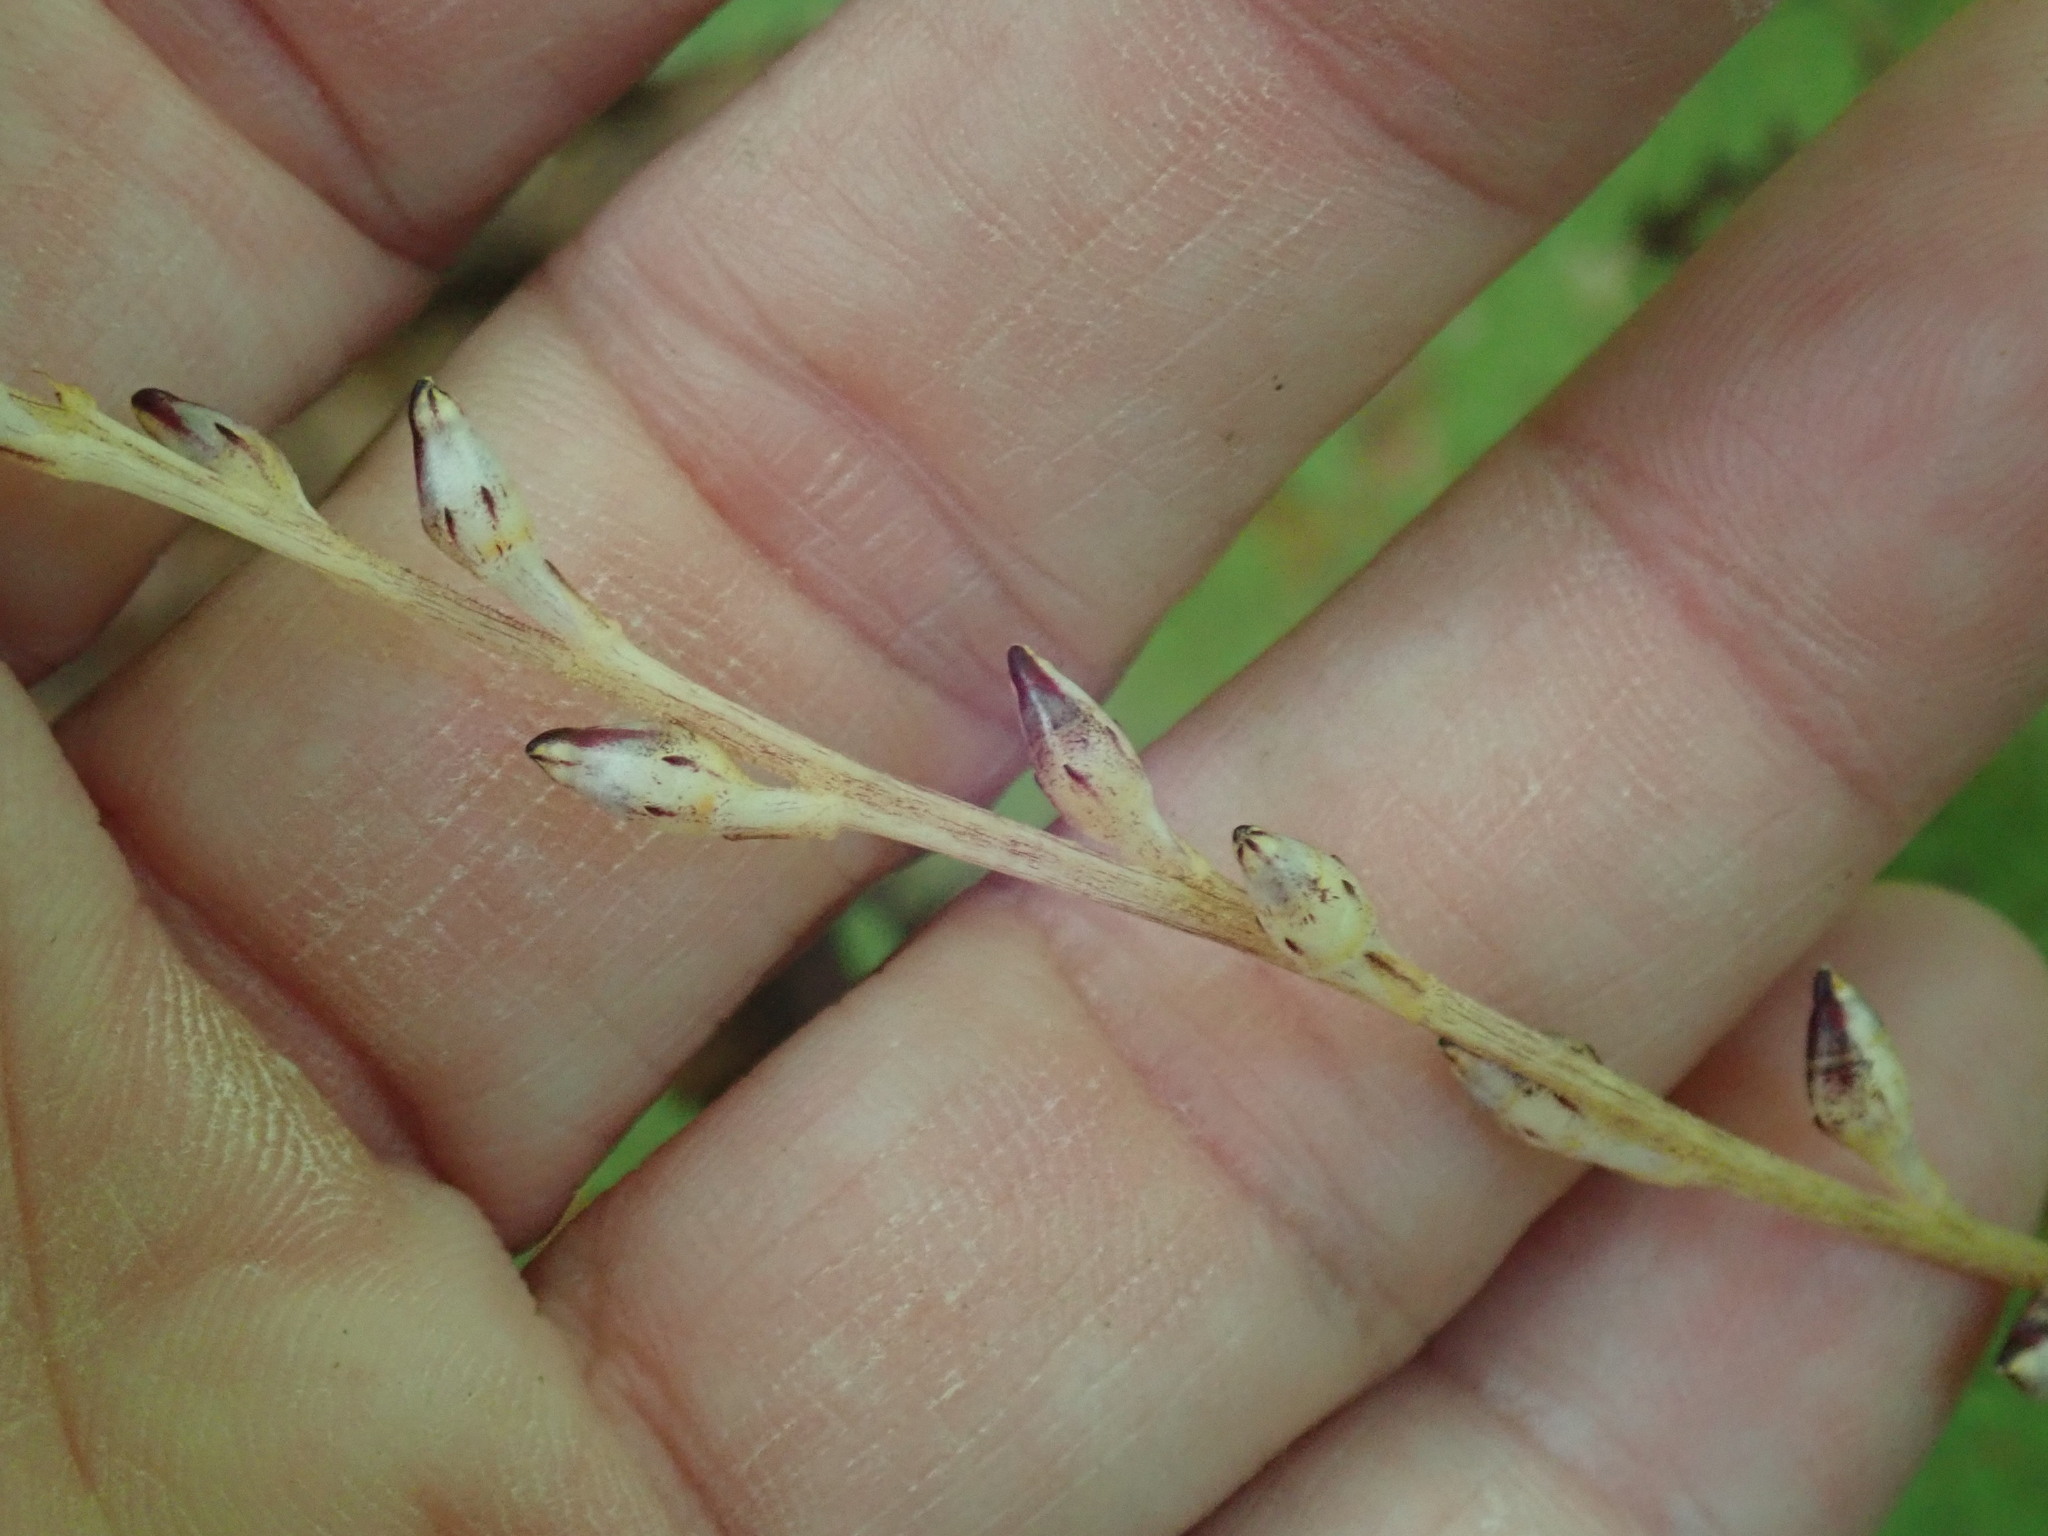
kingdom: Plantae
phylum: Tracheophyta
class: Magnoliopsida
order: Lamiales
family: Orobanchaceae
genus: Epifagus
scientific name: Epifagus virginiana
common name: Beechdrops
